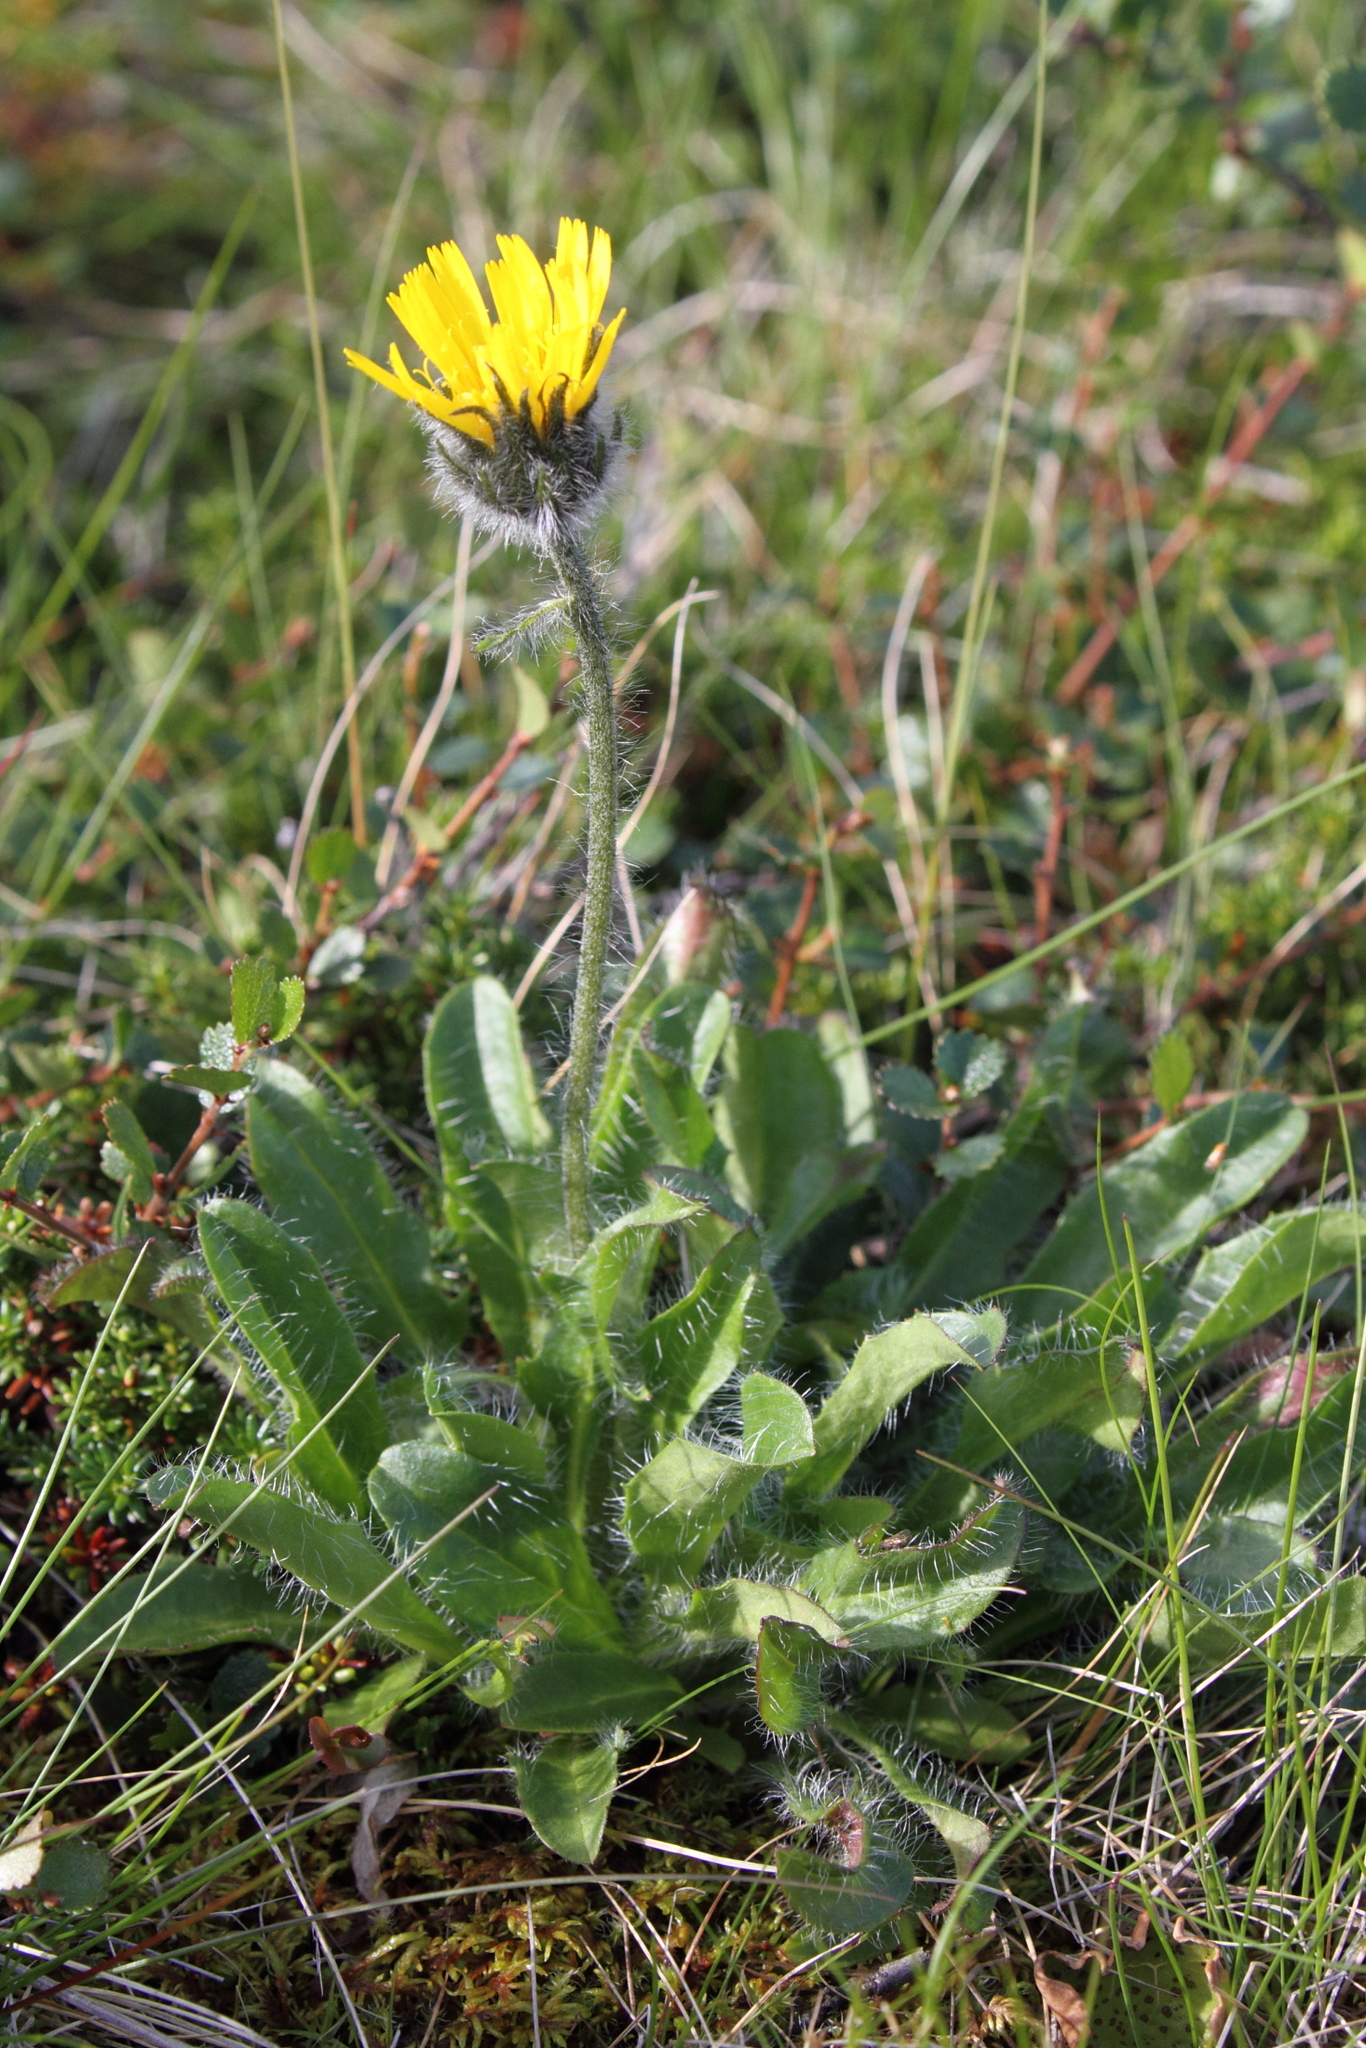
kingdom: Plantae
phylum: Tracheophyta
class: Magnoliopsida
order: Asterales
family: Asteraceae
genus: Hieracium
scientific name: Hieracium alpinum
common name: Alpine hawkweed
